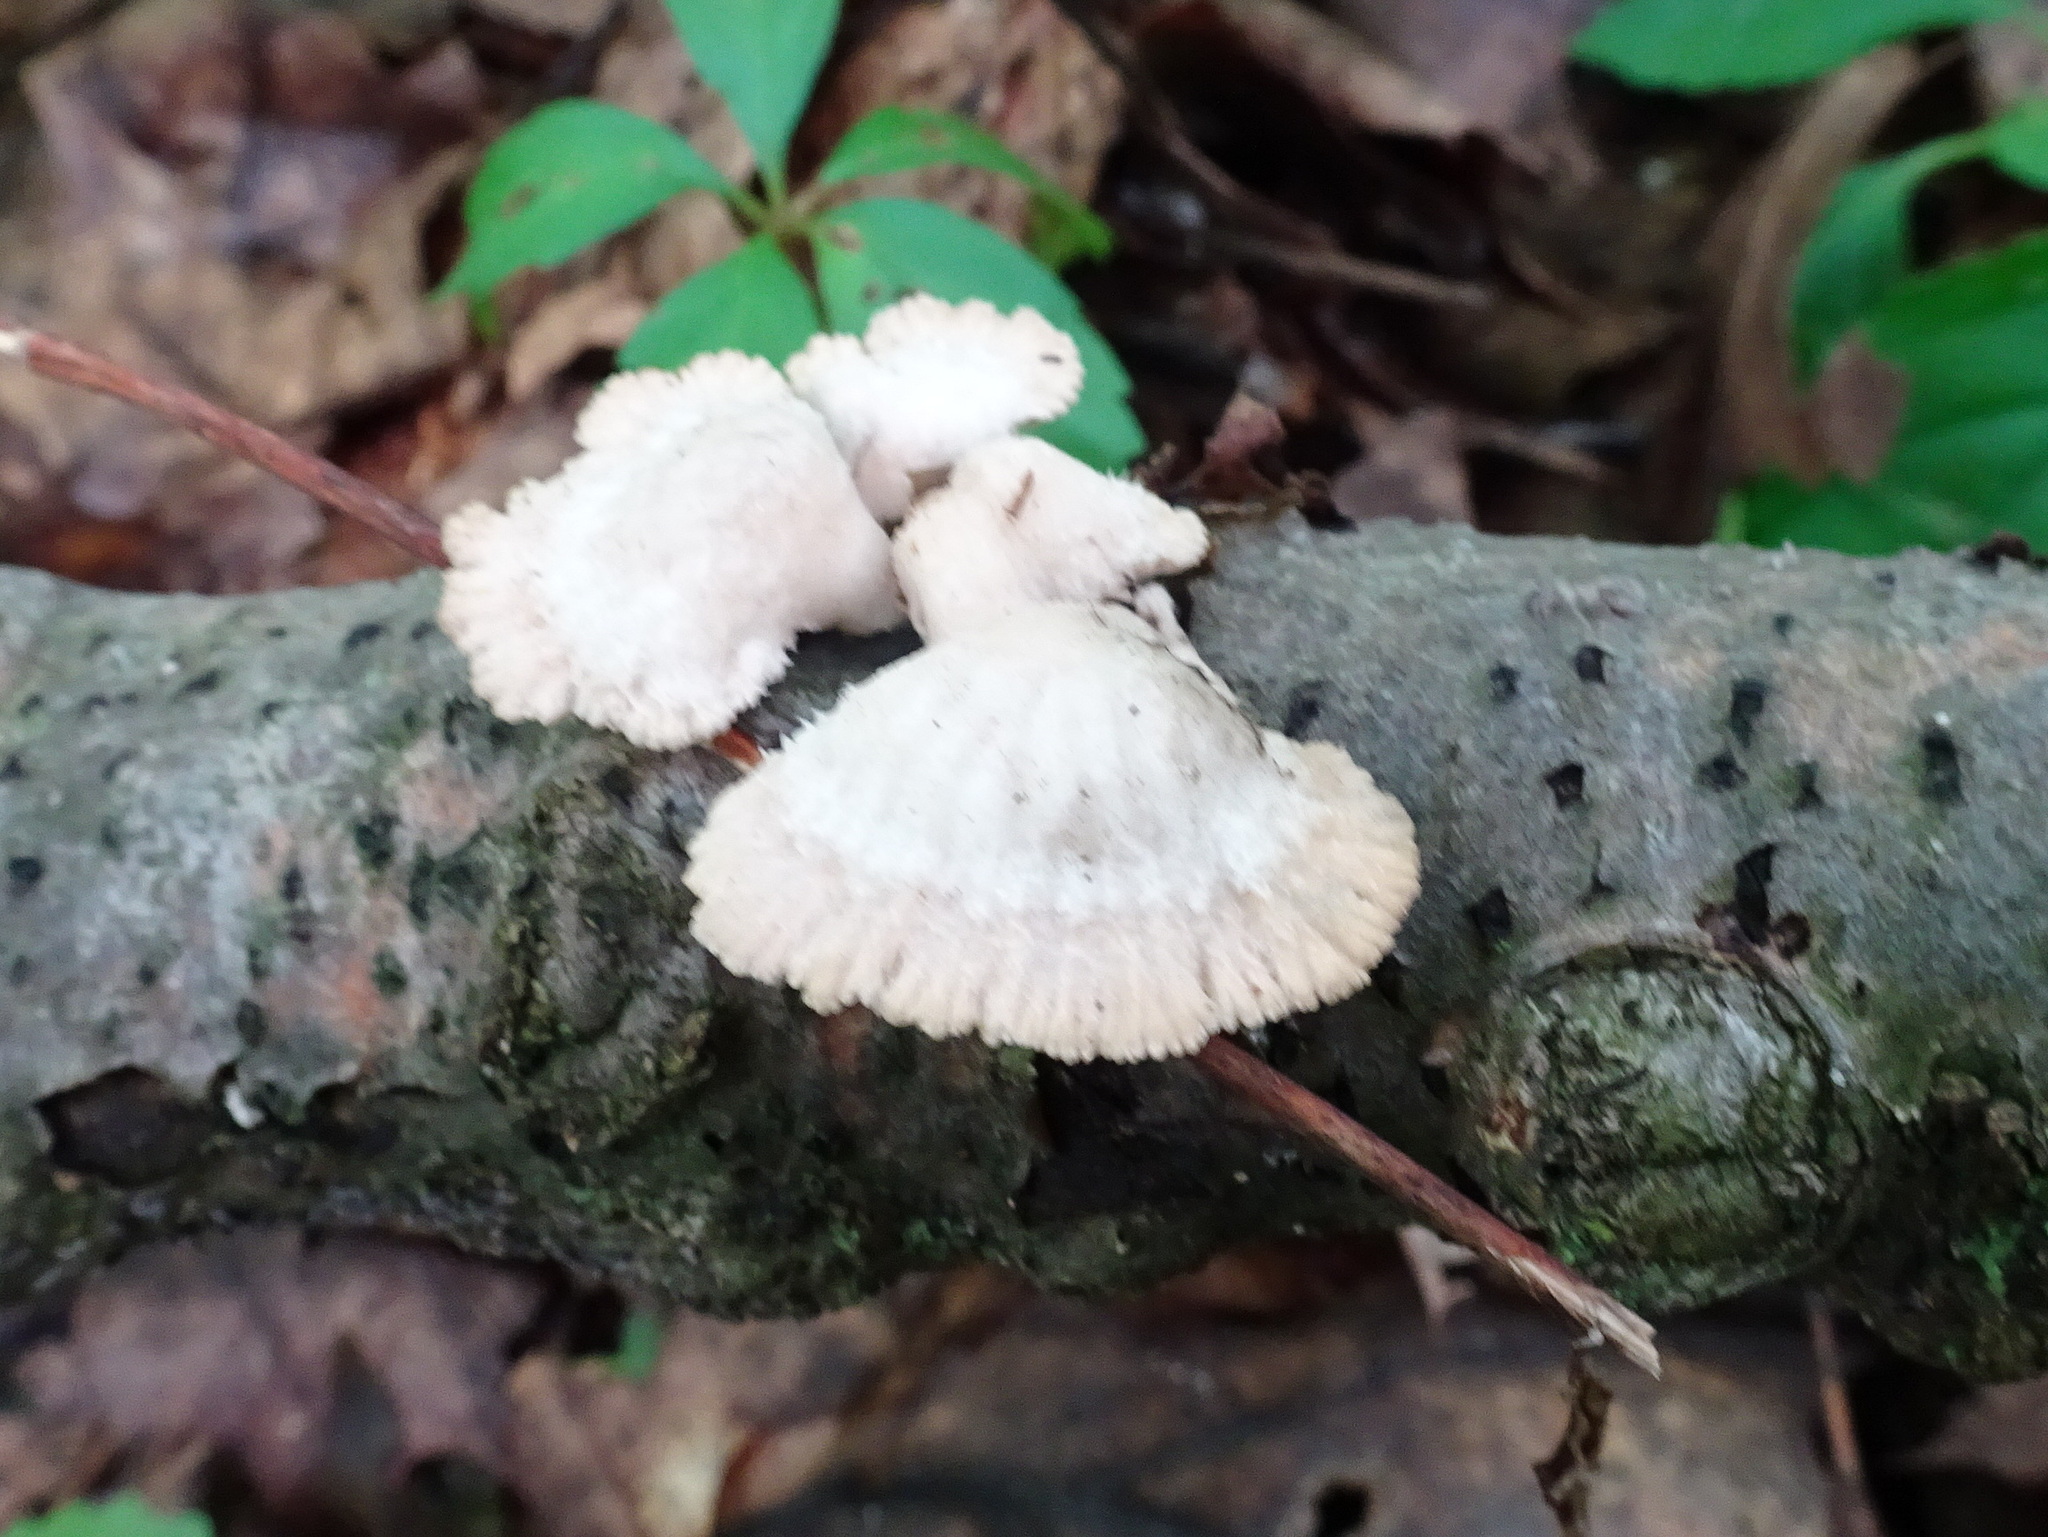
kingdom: Fungi
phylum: Basidiomycota
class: Agaricomycetes
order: Agaricales
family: Schizophyllaceae
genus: Schizophyllum
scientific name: Schizophyllum commune
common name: Common porecrust
